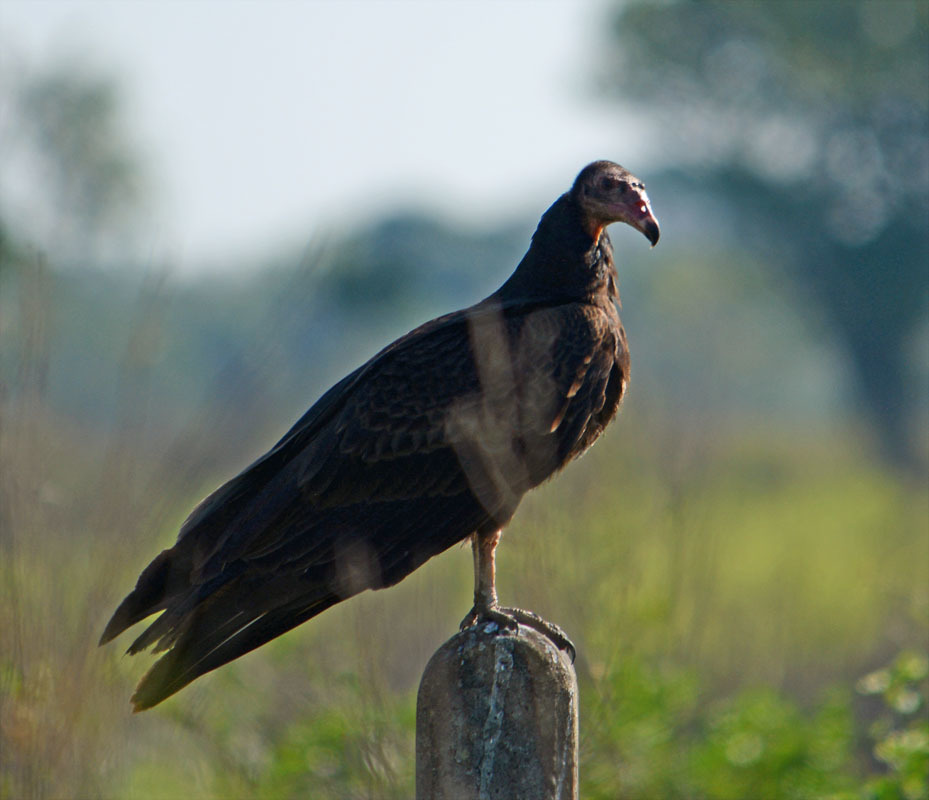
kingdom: Animalia
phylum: Chordata
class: Aves
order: Accipitriformes
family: Cathartidae
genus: Cathartes
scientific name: Cathartes burrovianus
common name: Lesser yellow-headed vulture
